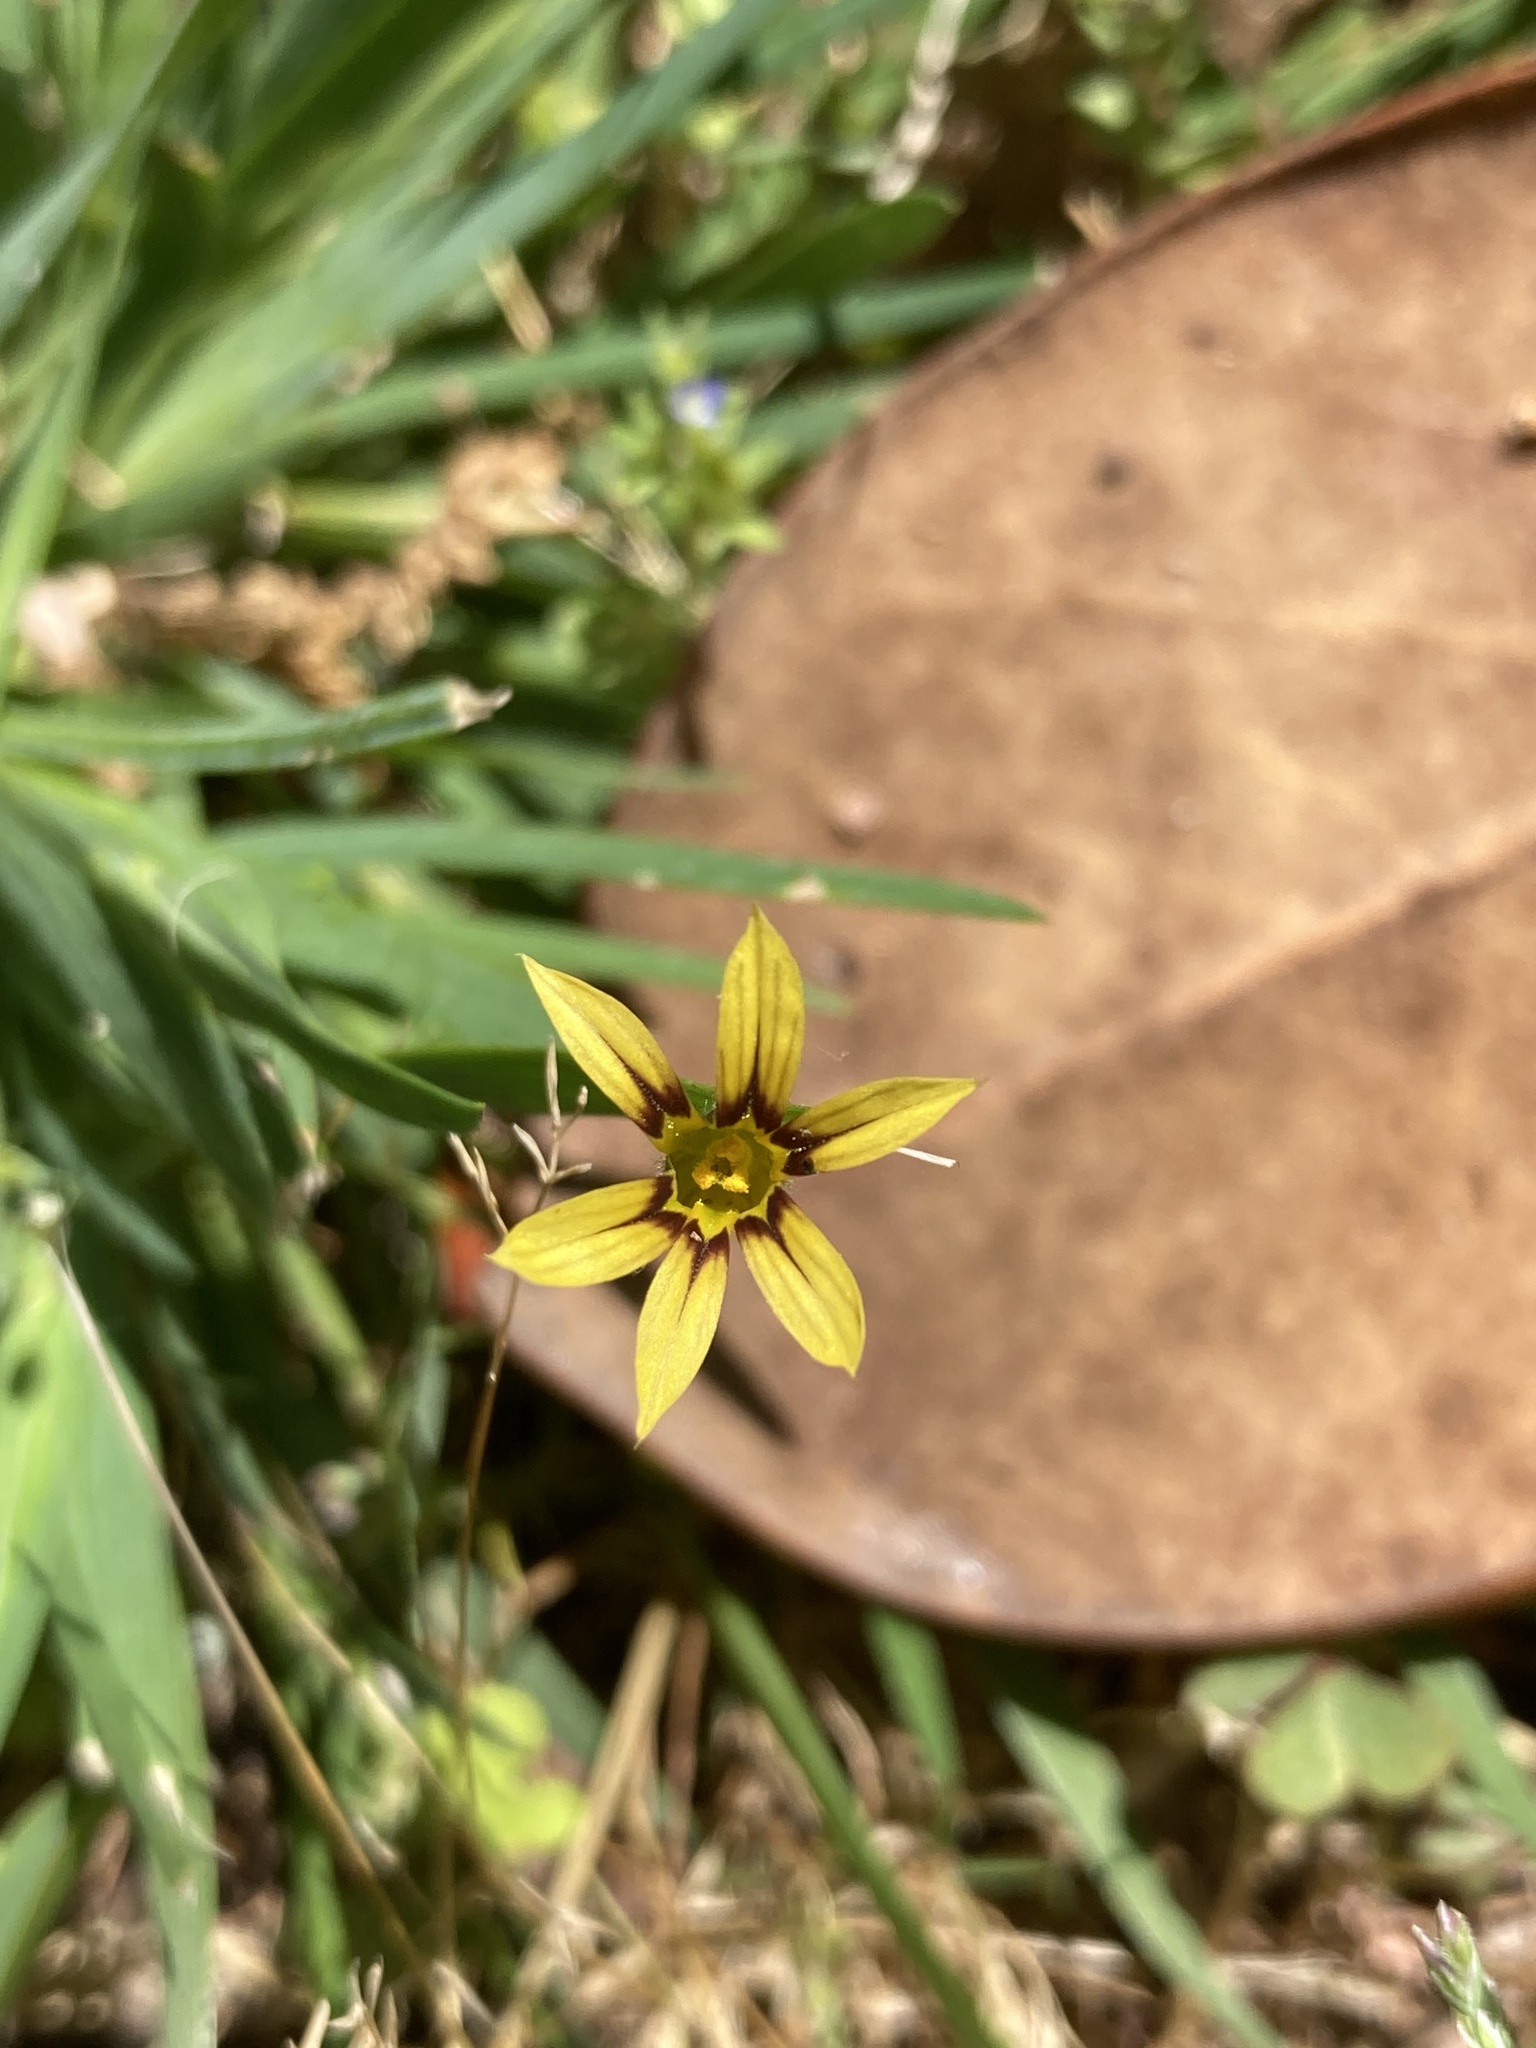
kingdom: Plantae
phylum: Tracheophyta
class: Liliopsida
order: Asparagales
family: Iridaceae
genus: Sisyrinchium
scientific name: Sisyrinchium micranthum
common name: Bermuda pigroot
